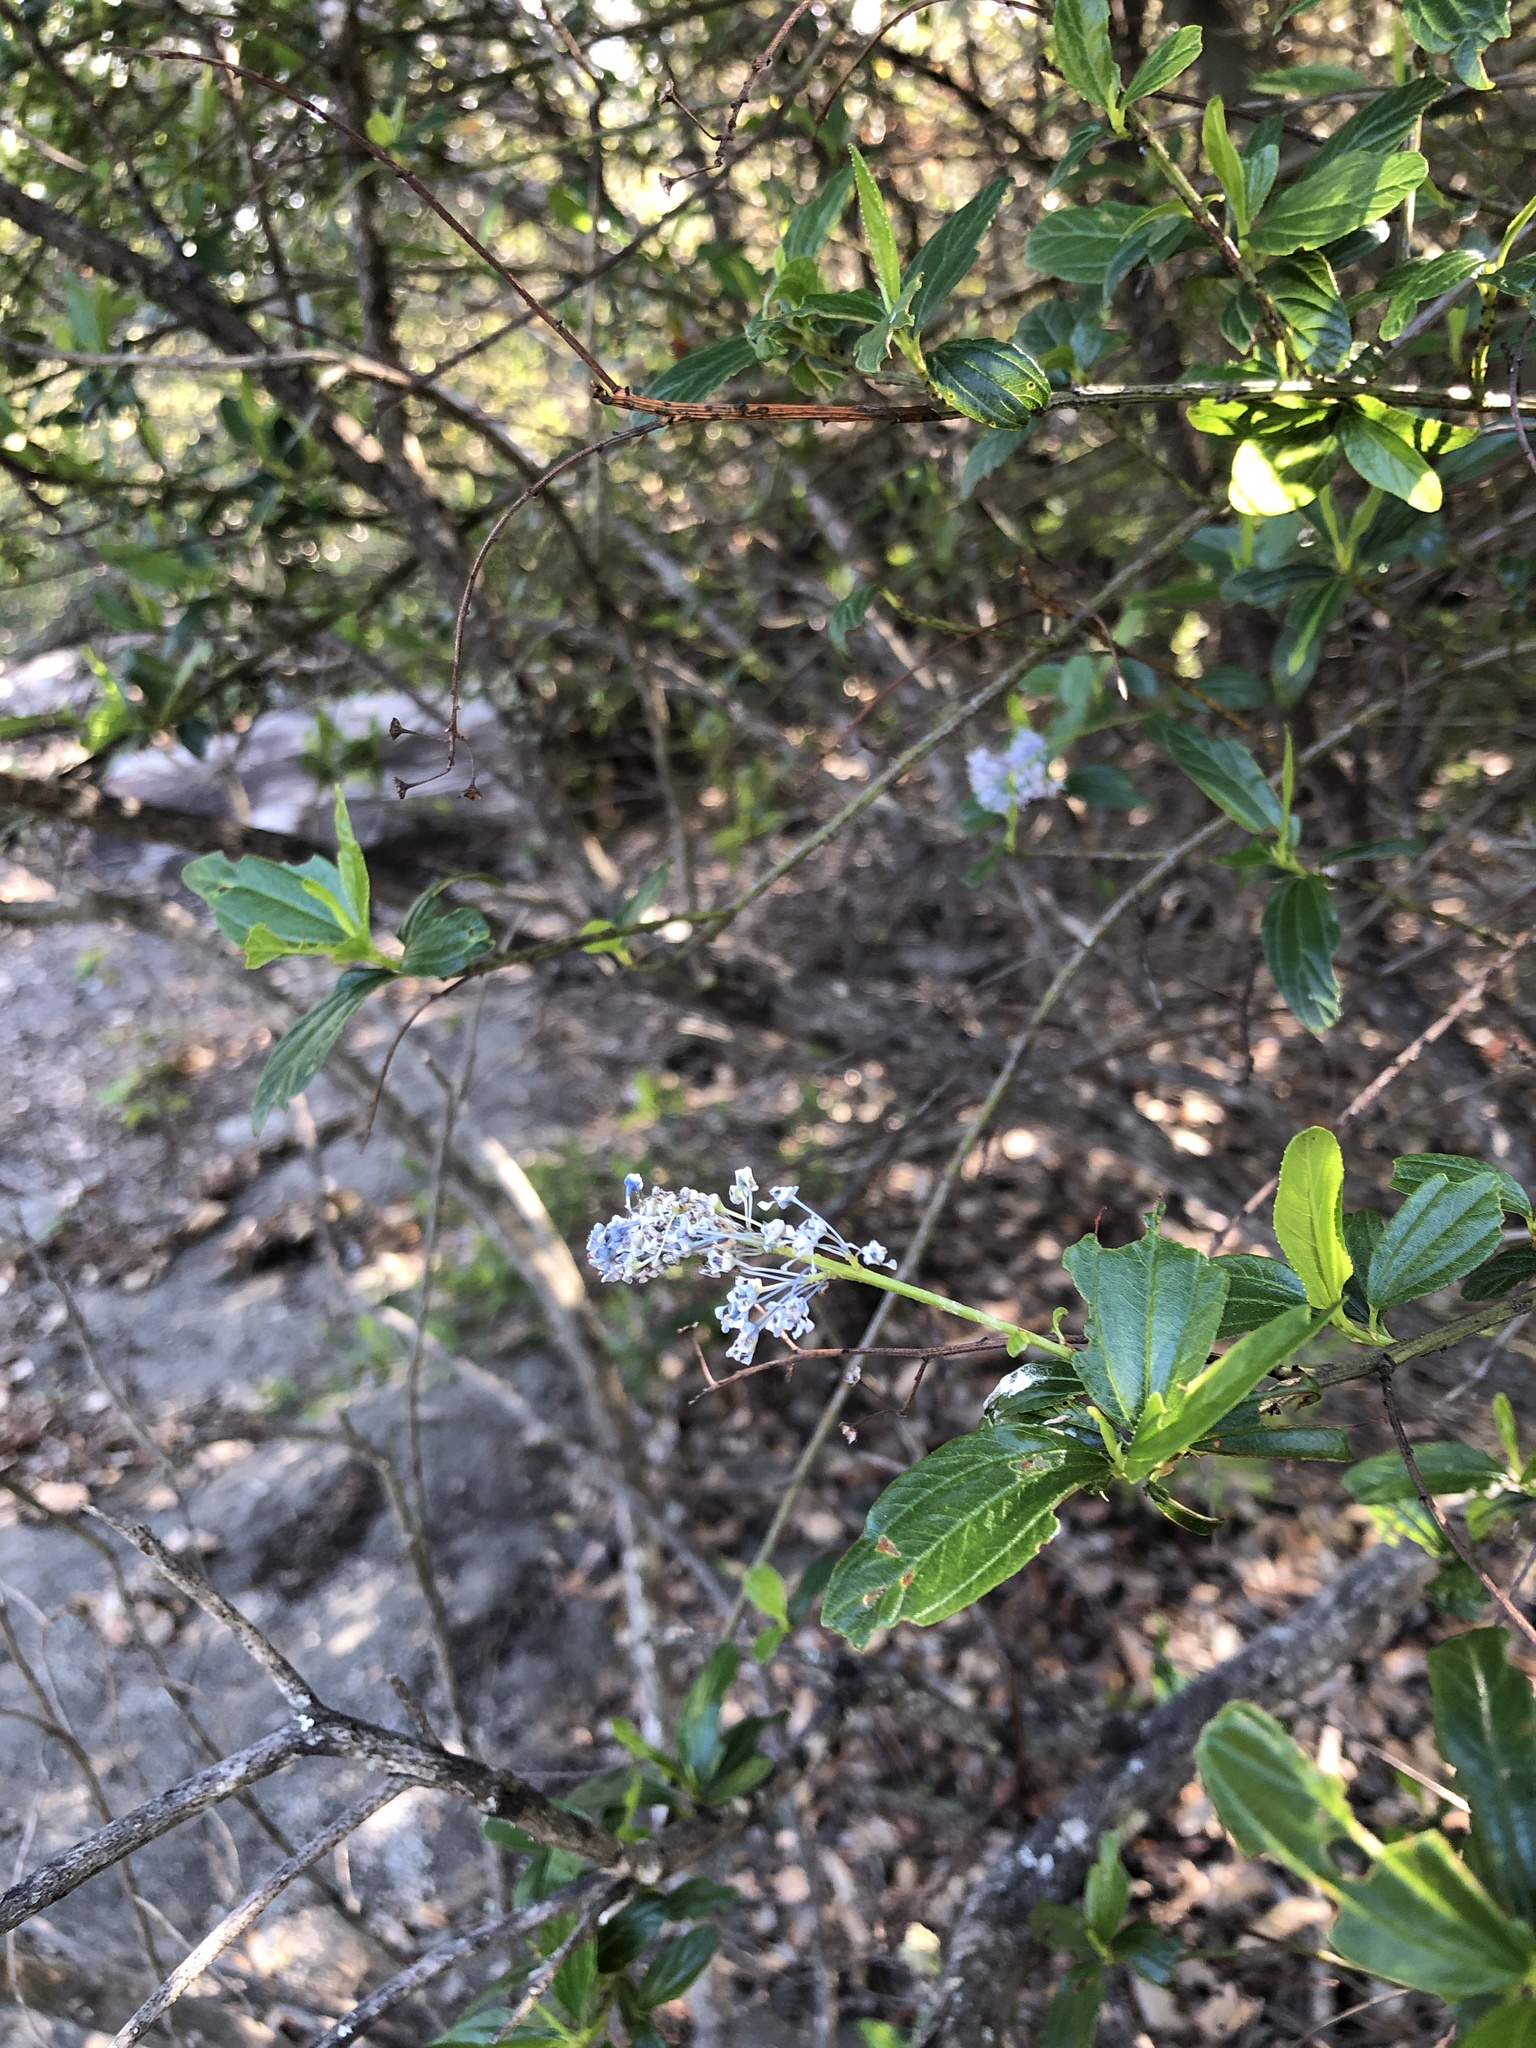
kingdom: Plantae
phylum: Tracheophyta
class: Magnoliopsida
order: Rosales
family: Rhamnaceae
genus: Ceanothus
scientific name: Ceanothus thyrsiflorus
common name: California-lilac
